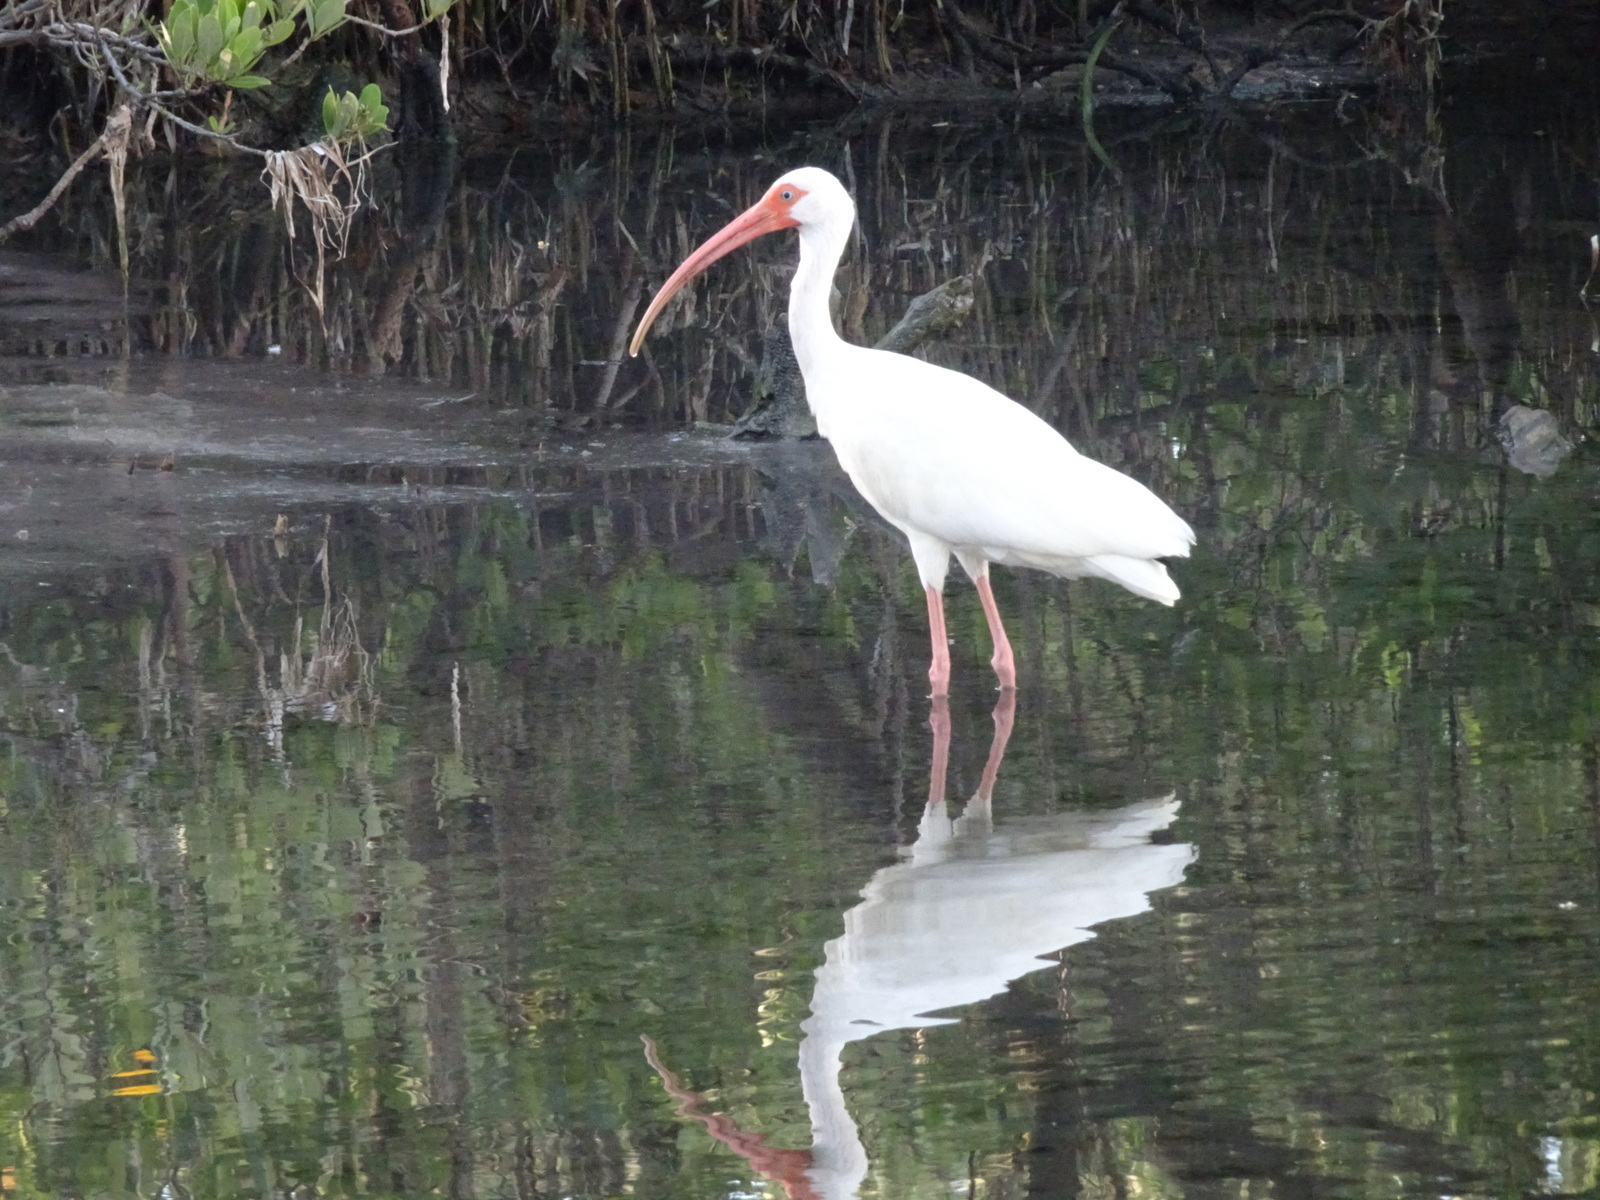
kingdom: Animalia
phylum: Chordata
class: Aves
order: Pelecaniformes
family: Threskiornithidae
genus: Eudocimus
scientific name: Eudocimus albus
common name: White ibis
